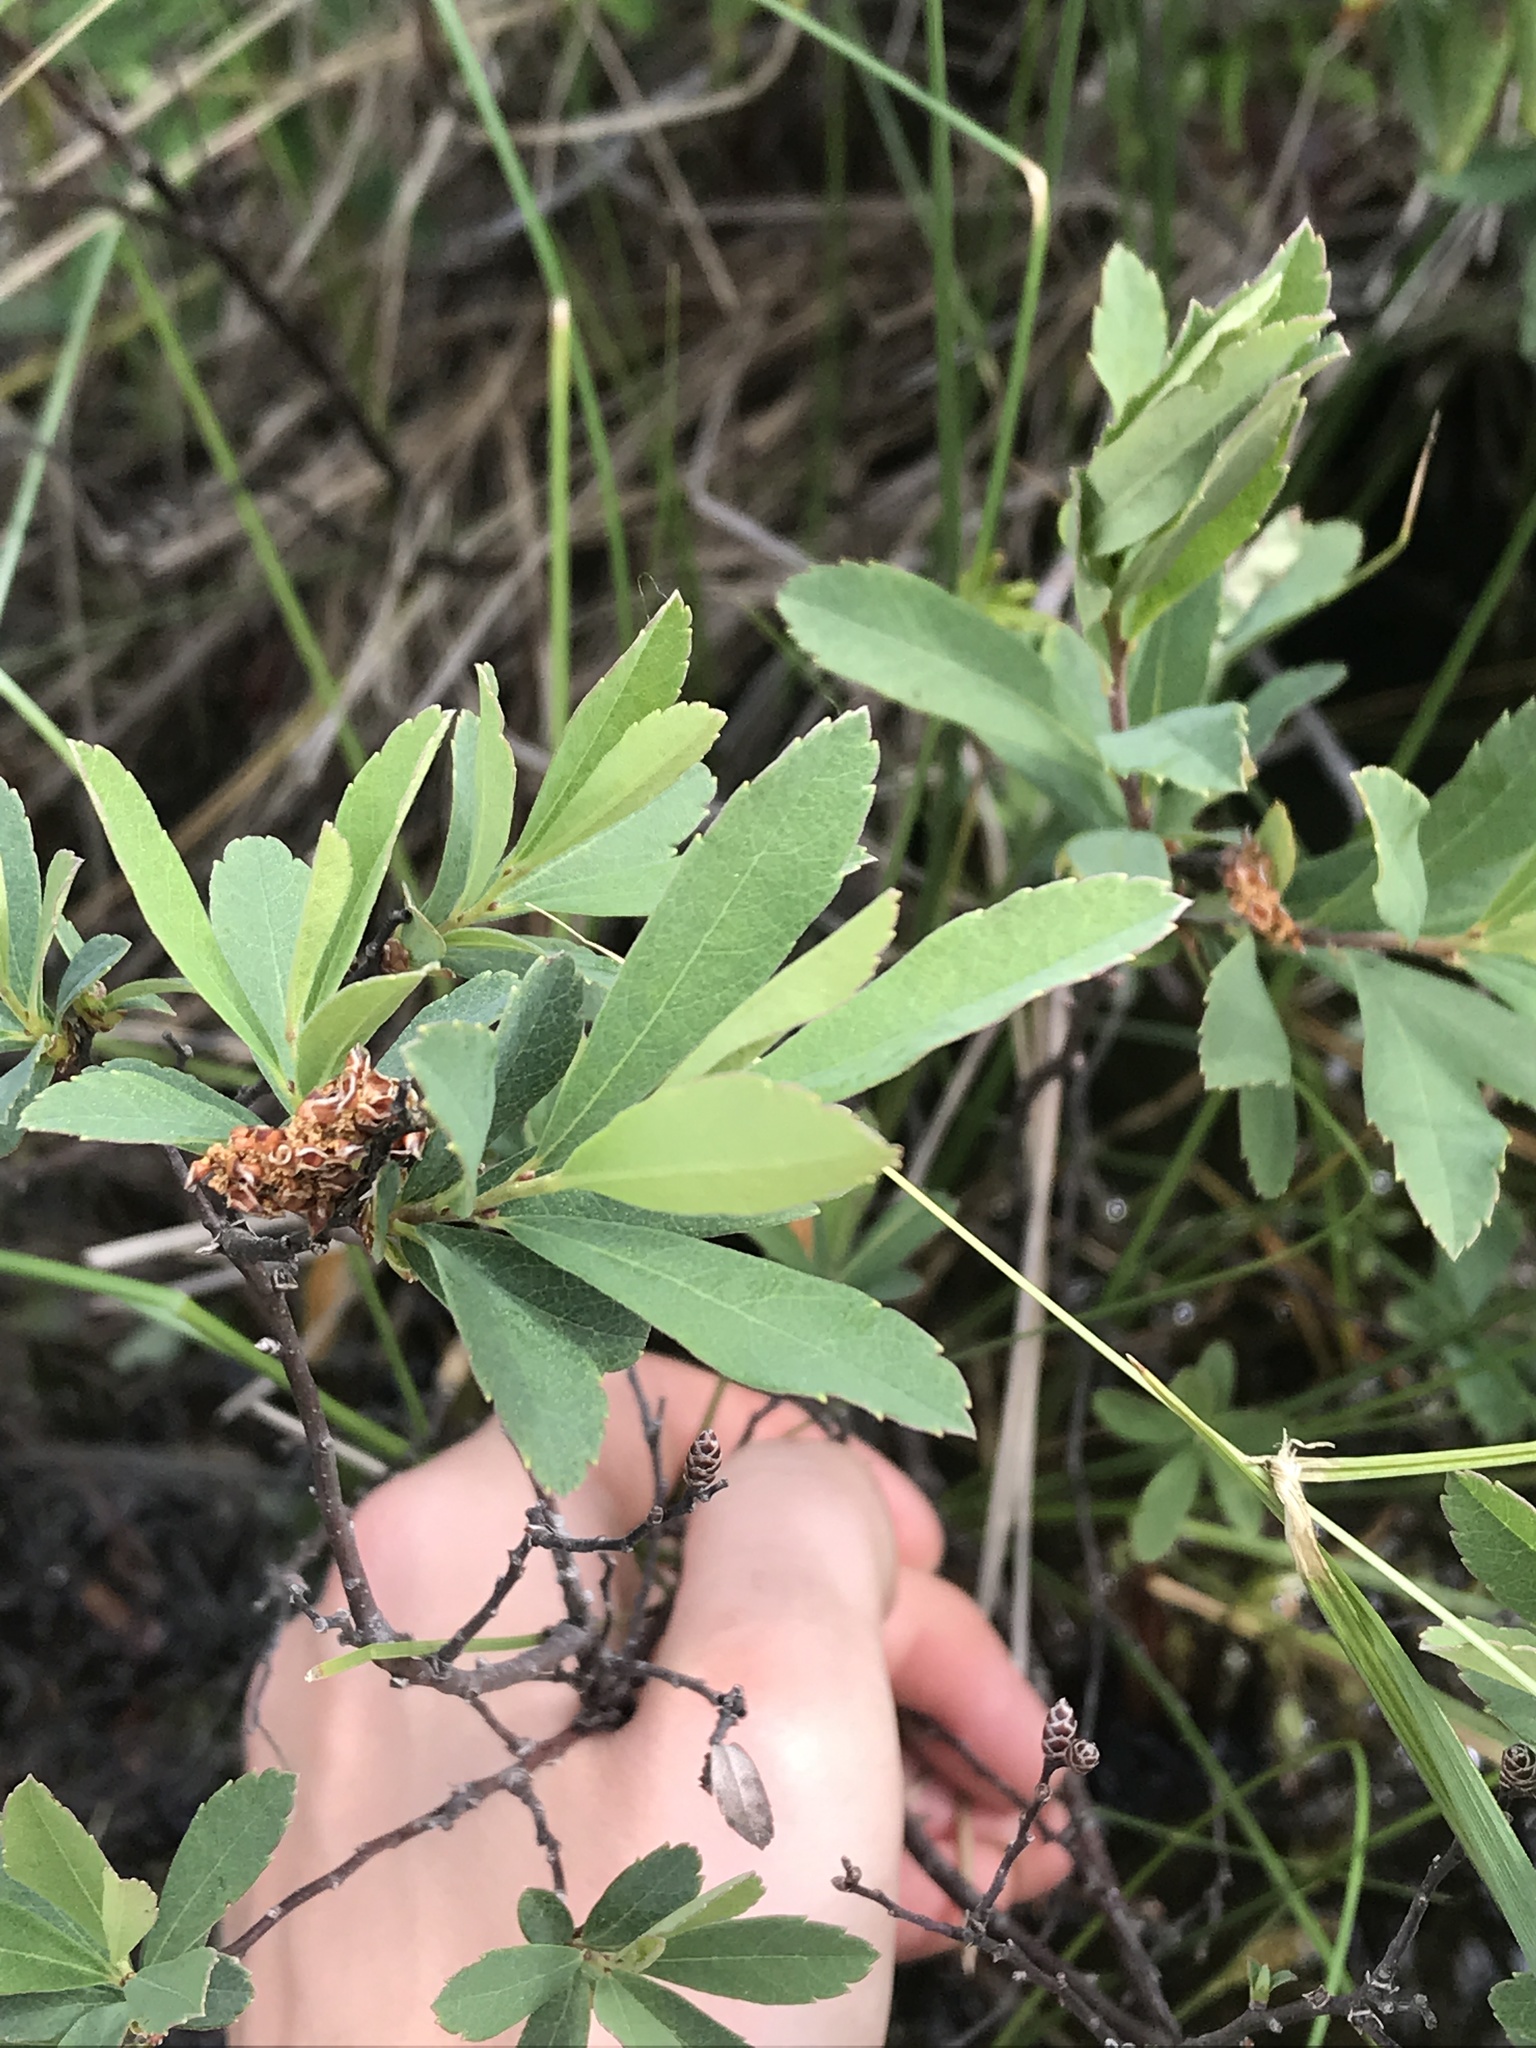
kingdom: Plantae
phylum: Tracheophyta
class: Magnoliopsida
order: Fagales
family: Myricaceae
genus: Myrica
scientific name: Myrica gale
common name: Sweet gale
